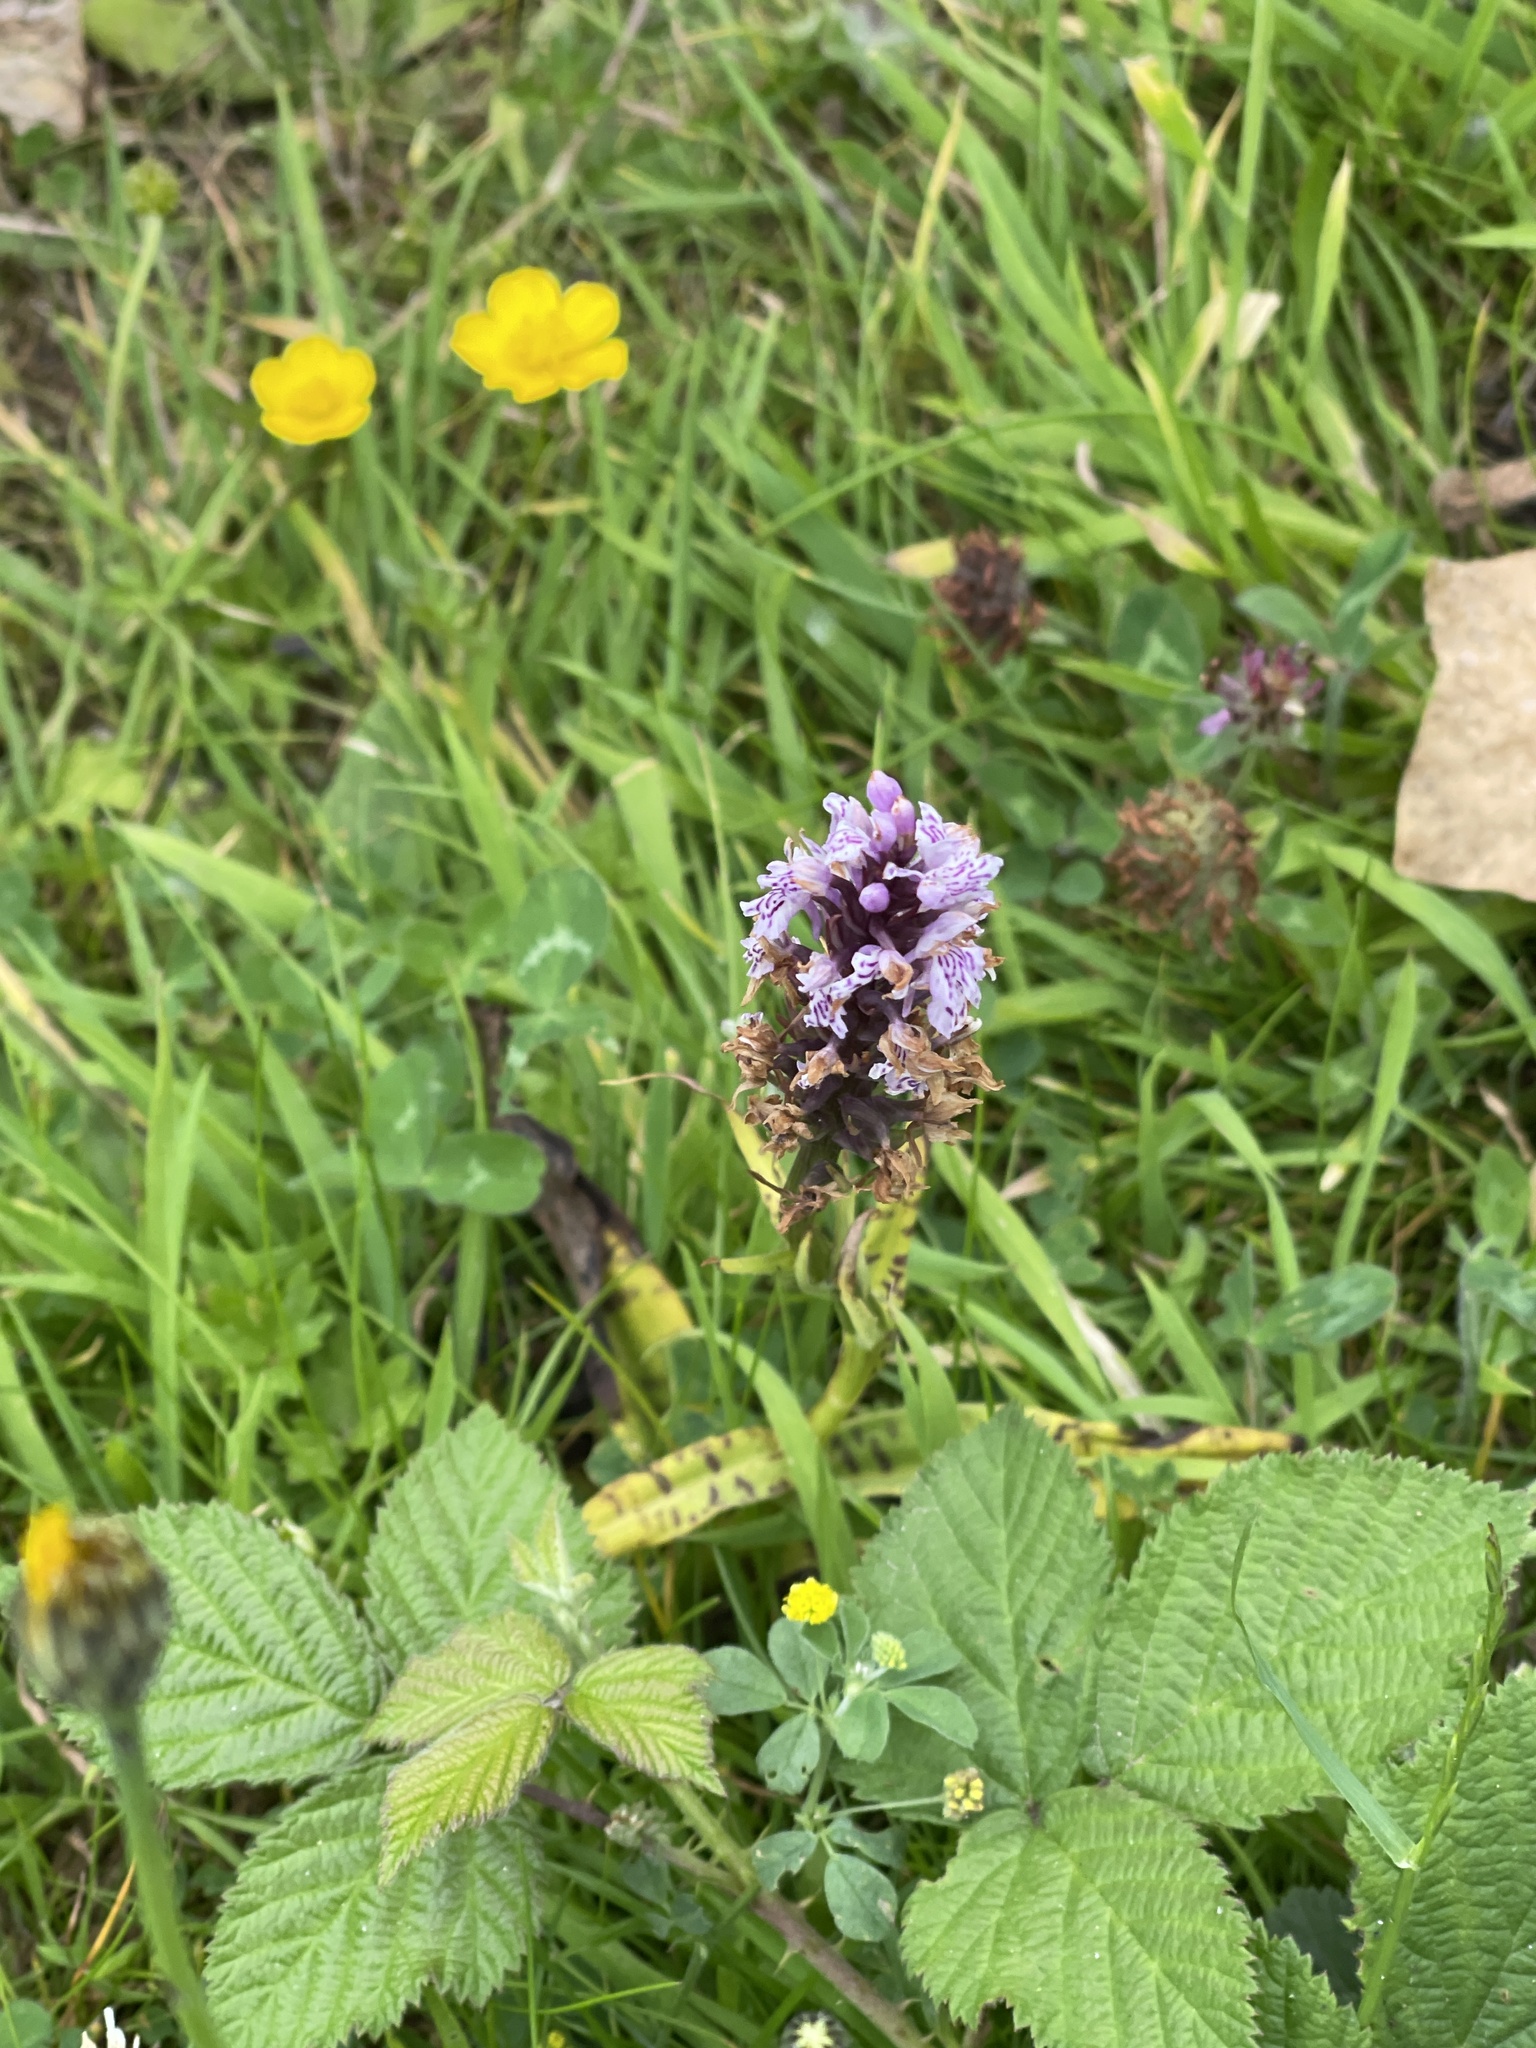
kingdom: Plantae
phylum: Tracheophyta
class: Liliopsida
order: Asparagales
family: Orchidaceae
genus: Dactylorhiza
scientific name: Dactylorhiza maculata
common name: Heath spotted-orchid
